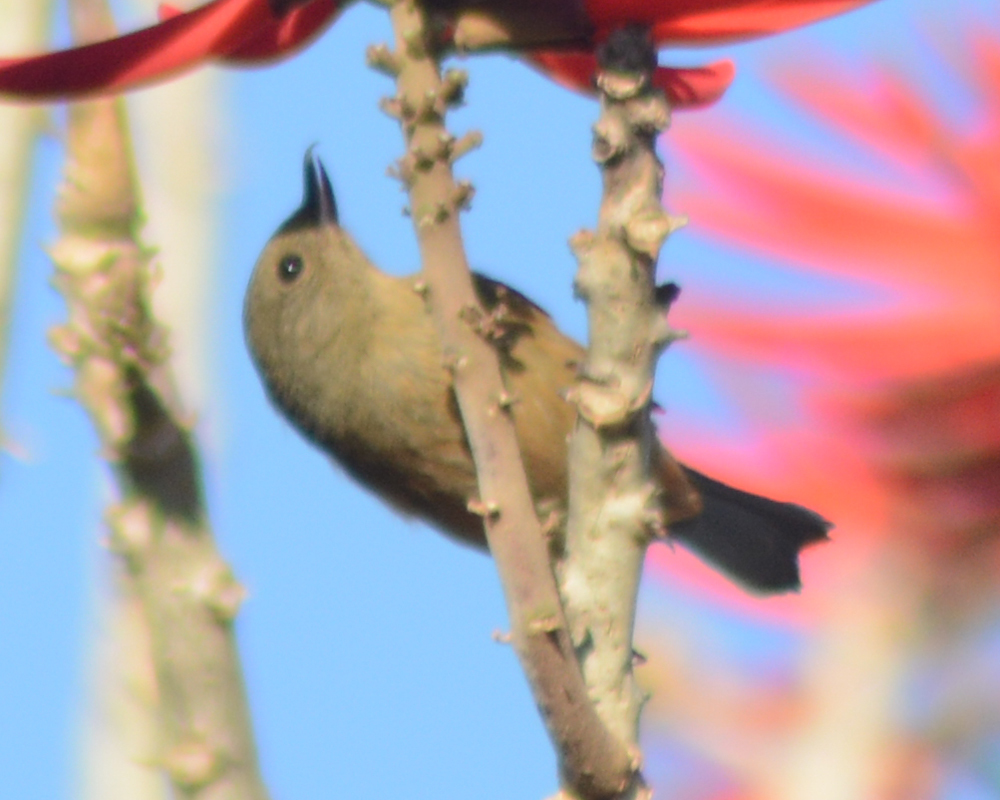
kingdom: Animalia
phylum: Chordata
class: Aves
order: Passeriformes
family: Thraupidae
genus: Diglossa
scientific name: Diglossa baritula
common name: Cinnamon-bellied flowerpiercer
